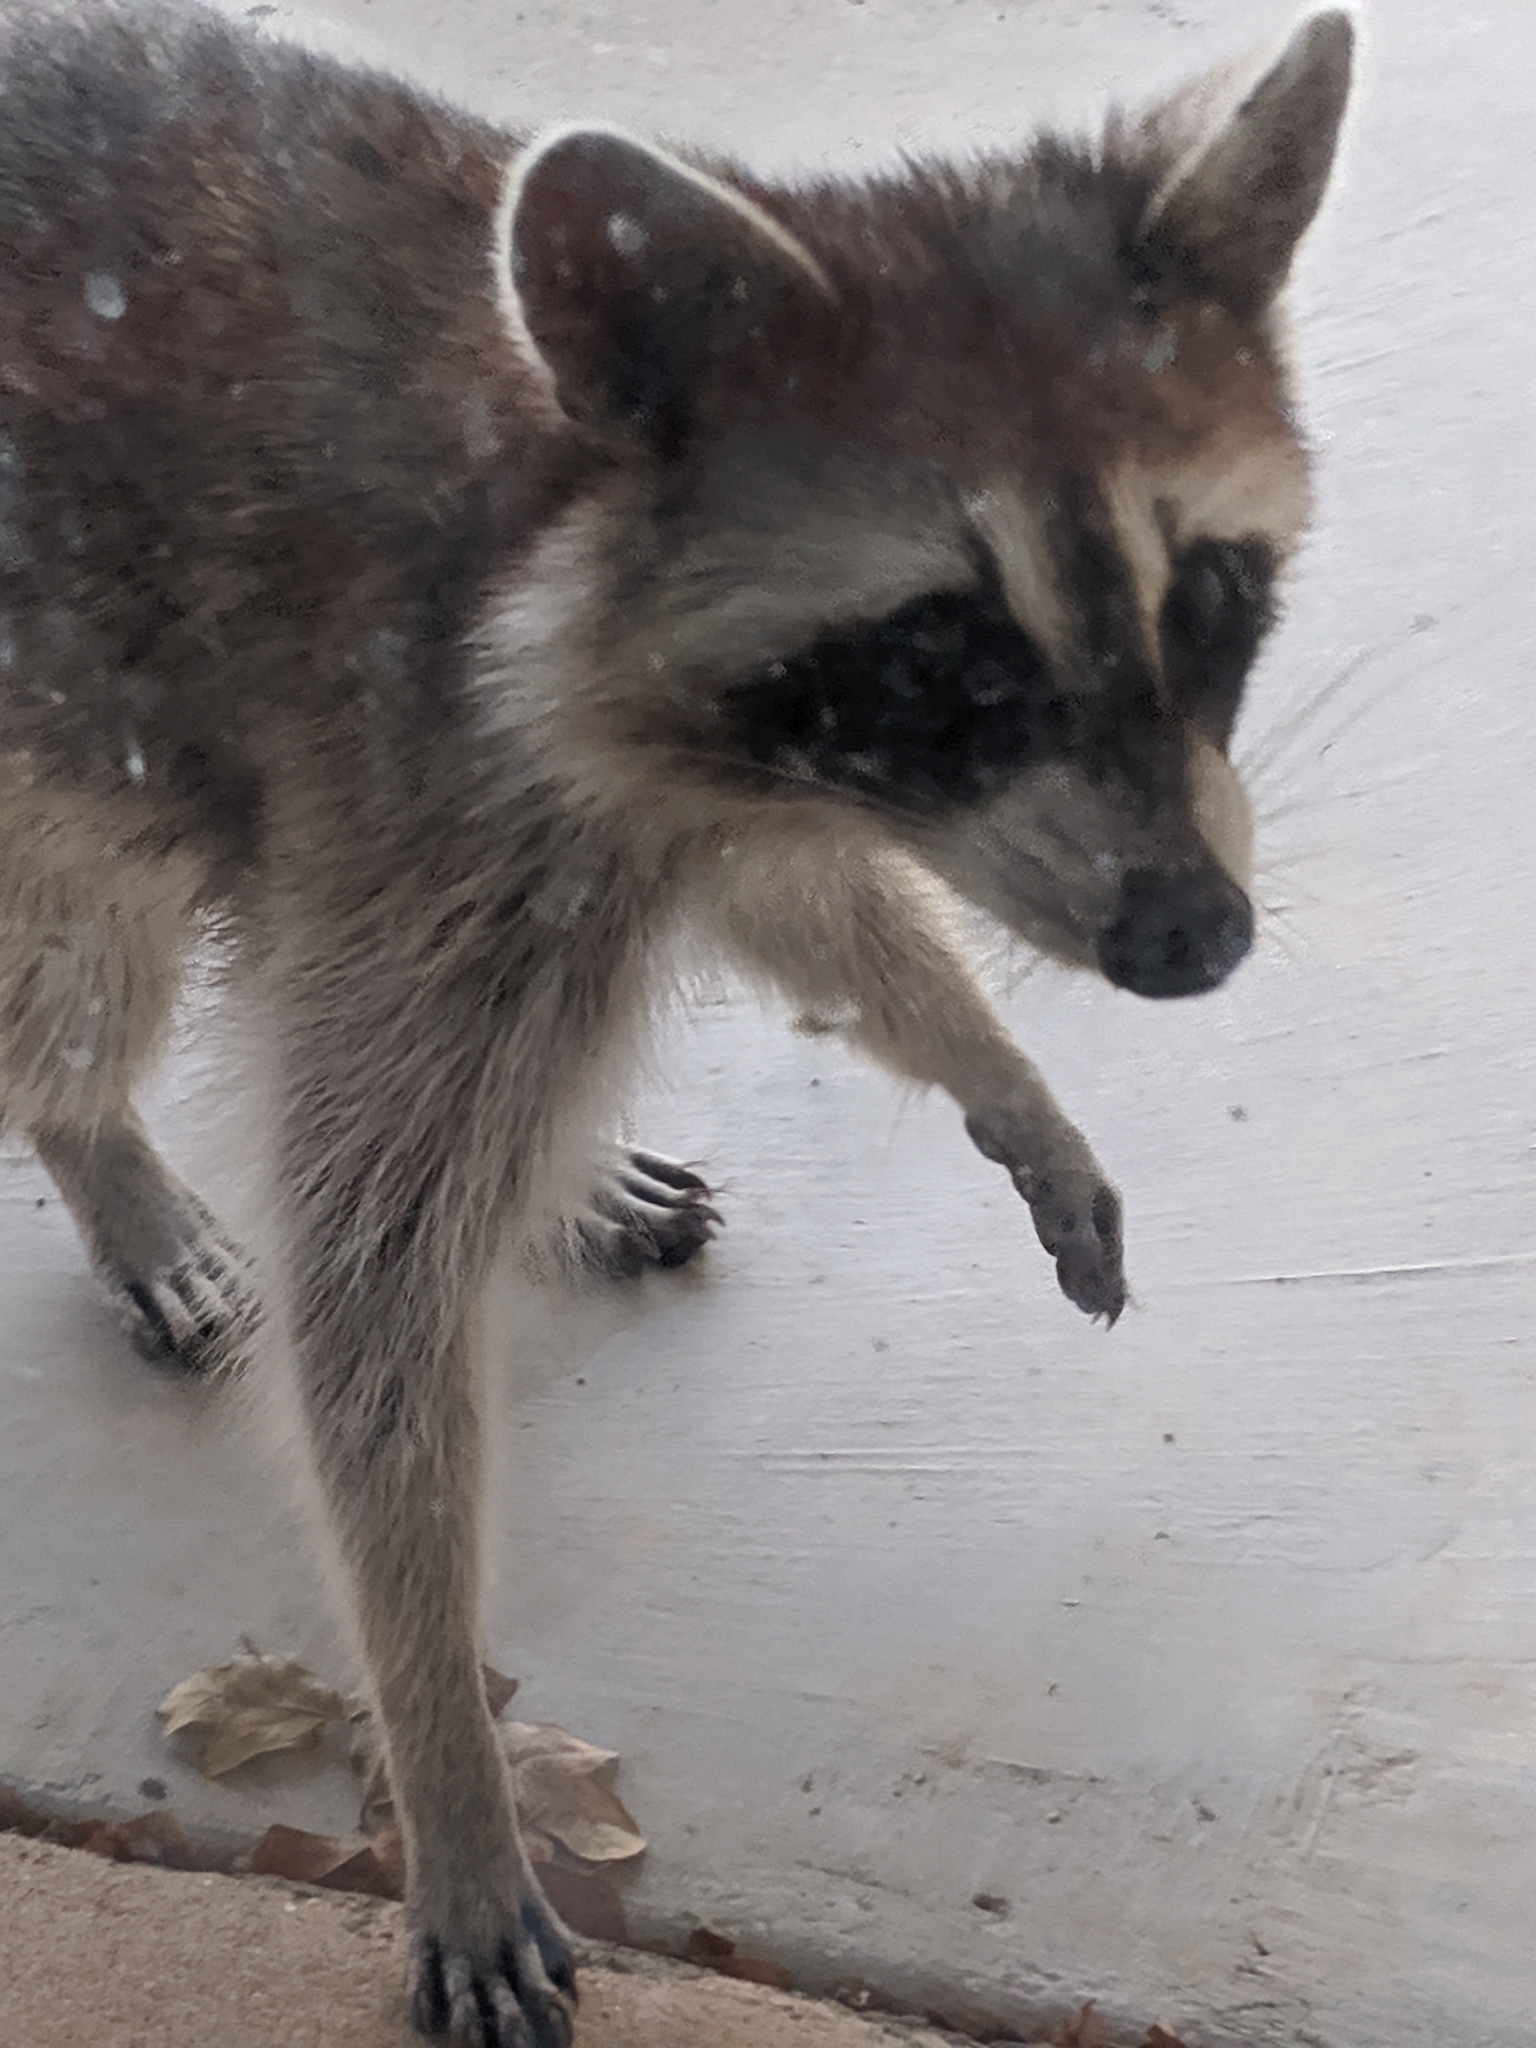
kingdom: Animalia
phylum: Chordata
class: Mammalia
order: Carnivora
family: Procyonidae
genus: Procyon
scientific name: Procyon lotor
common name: Raccoon
